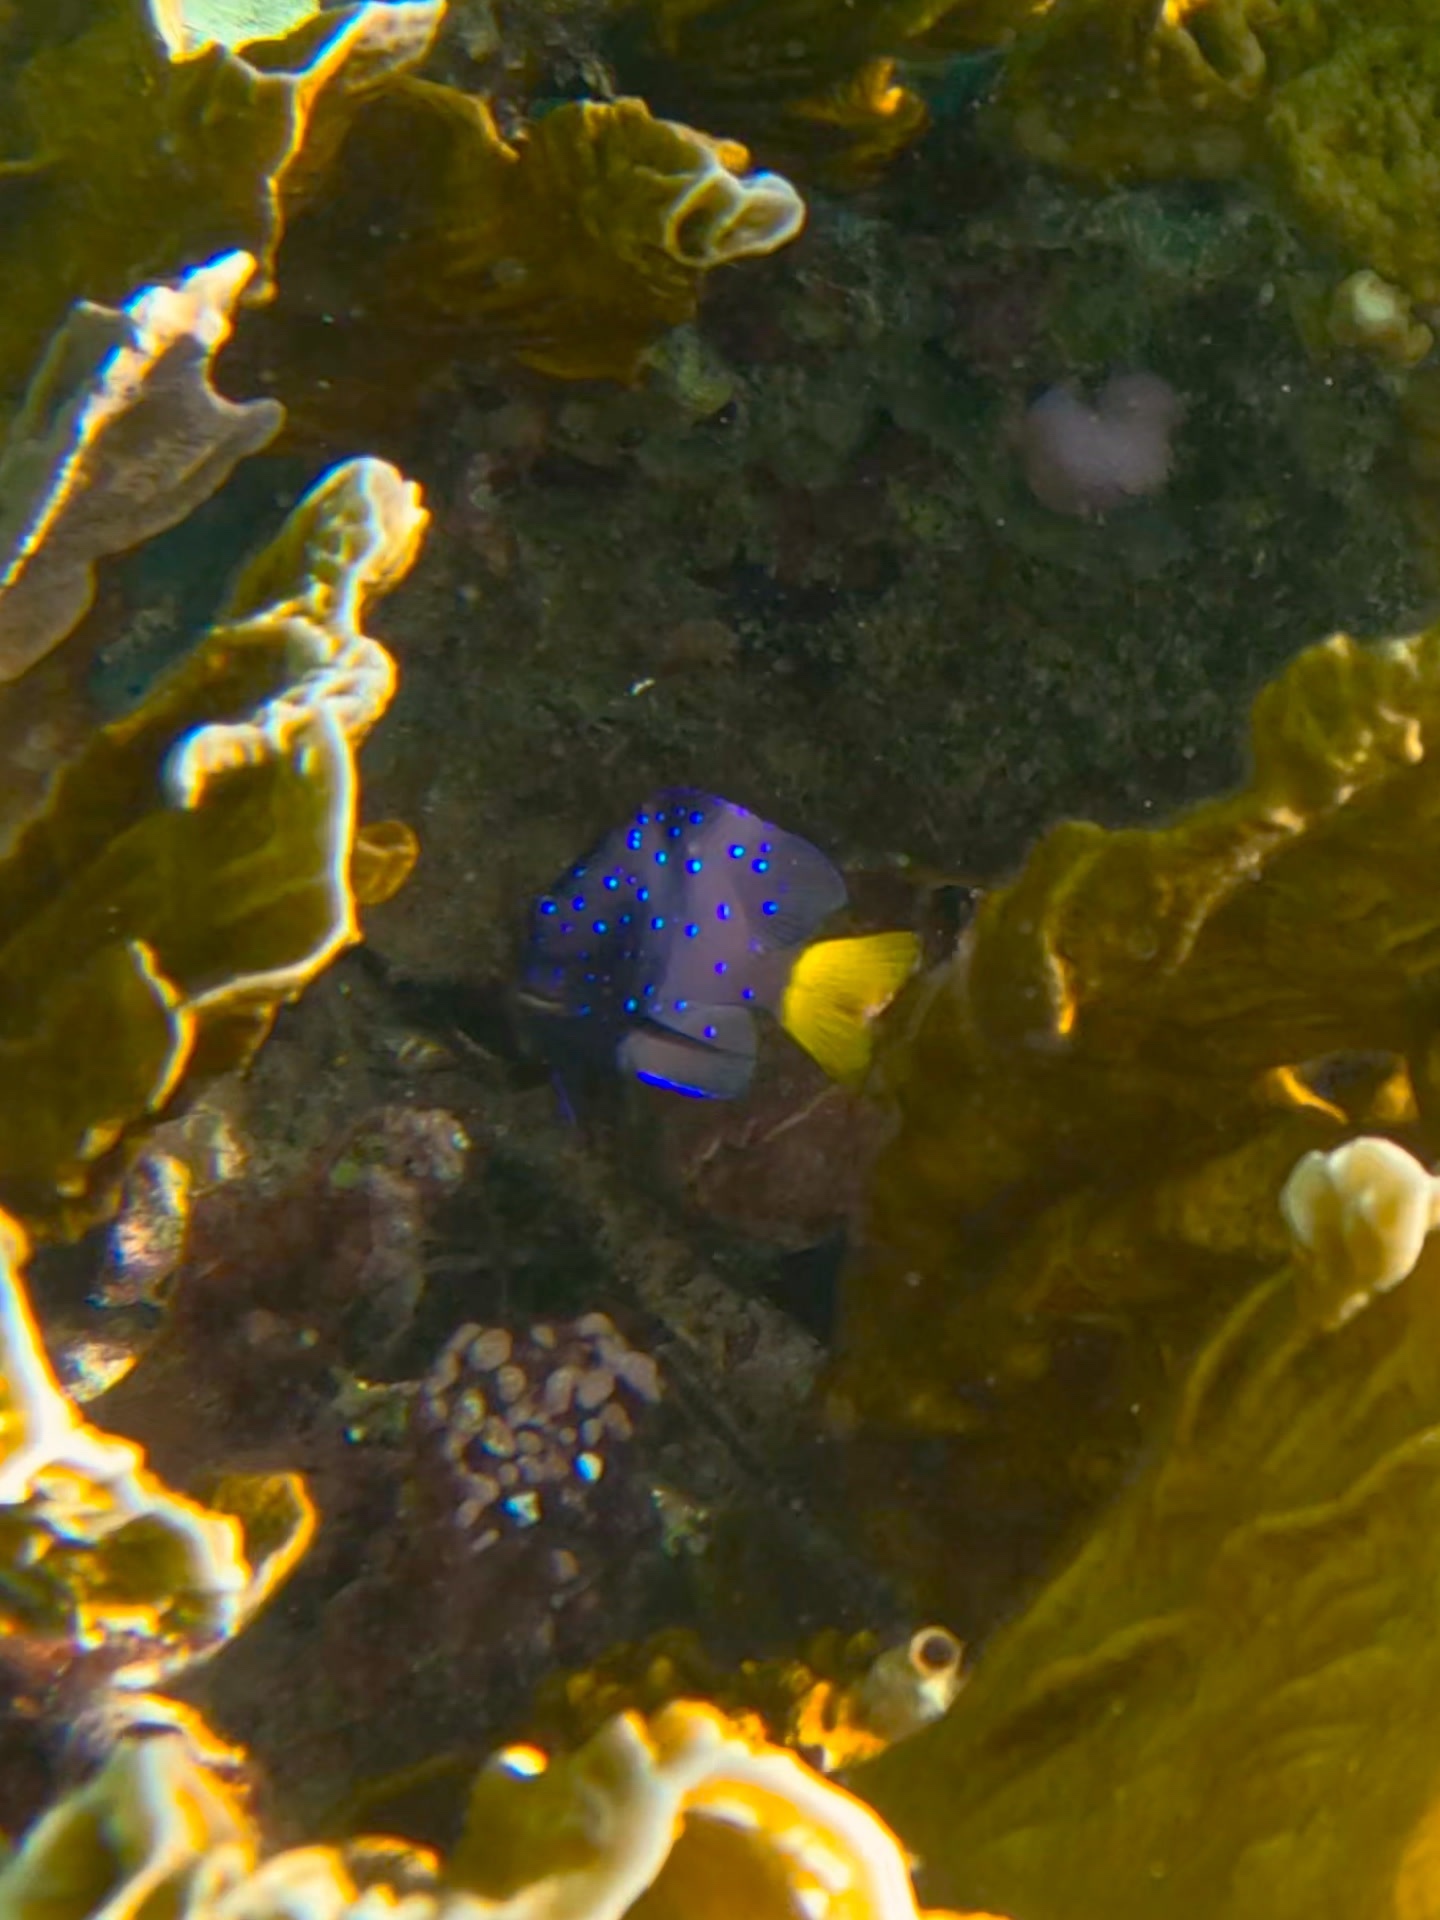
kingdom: Animalia
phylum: Chordata
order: Perciformes
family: Pomacentridae
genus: Microspathodon
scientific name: Microspathodon chrysurus
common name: Yellowtail damselfish
